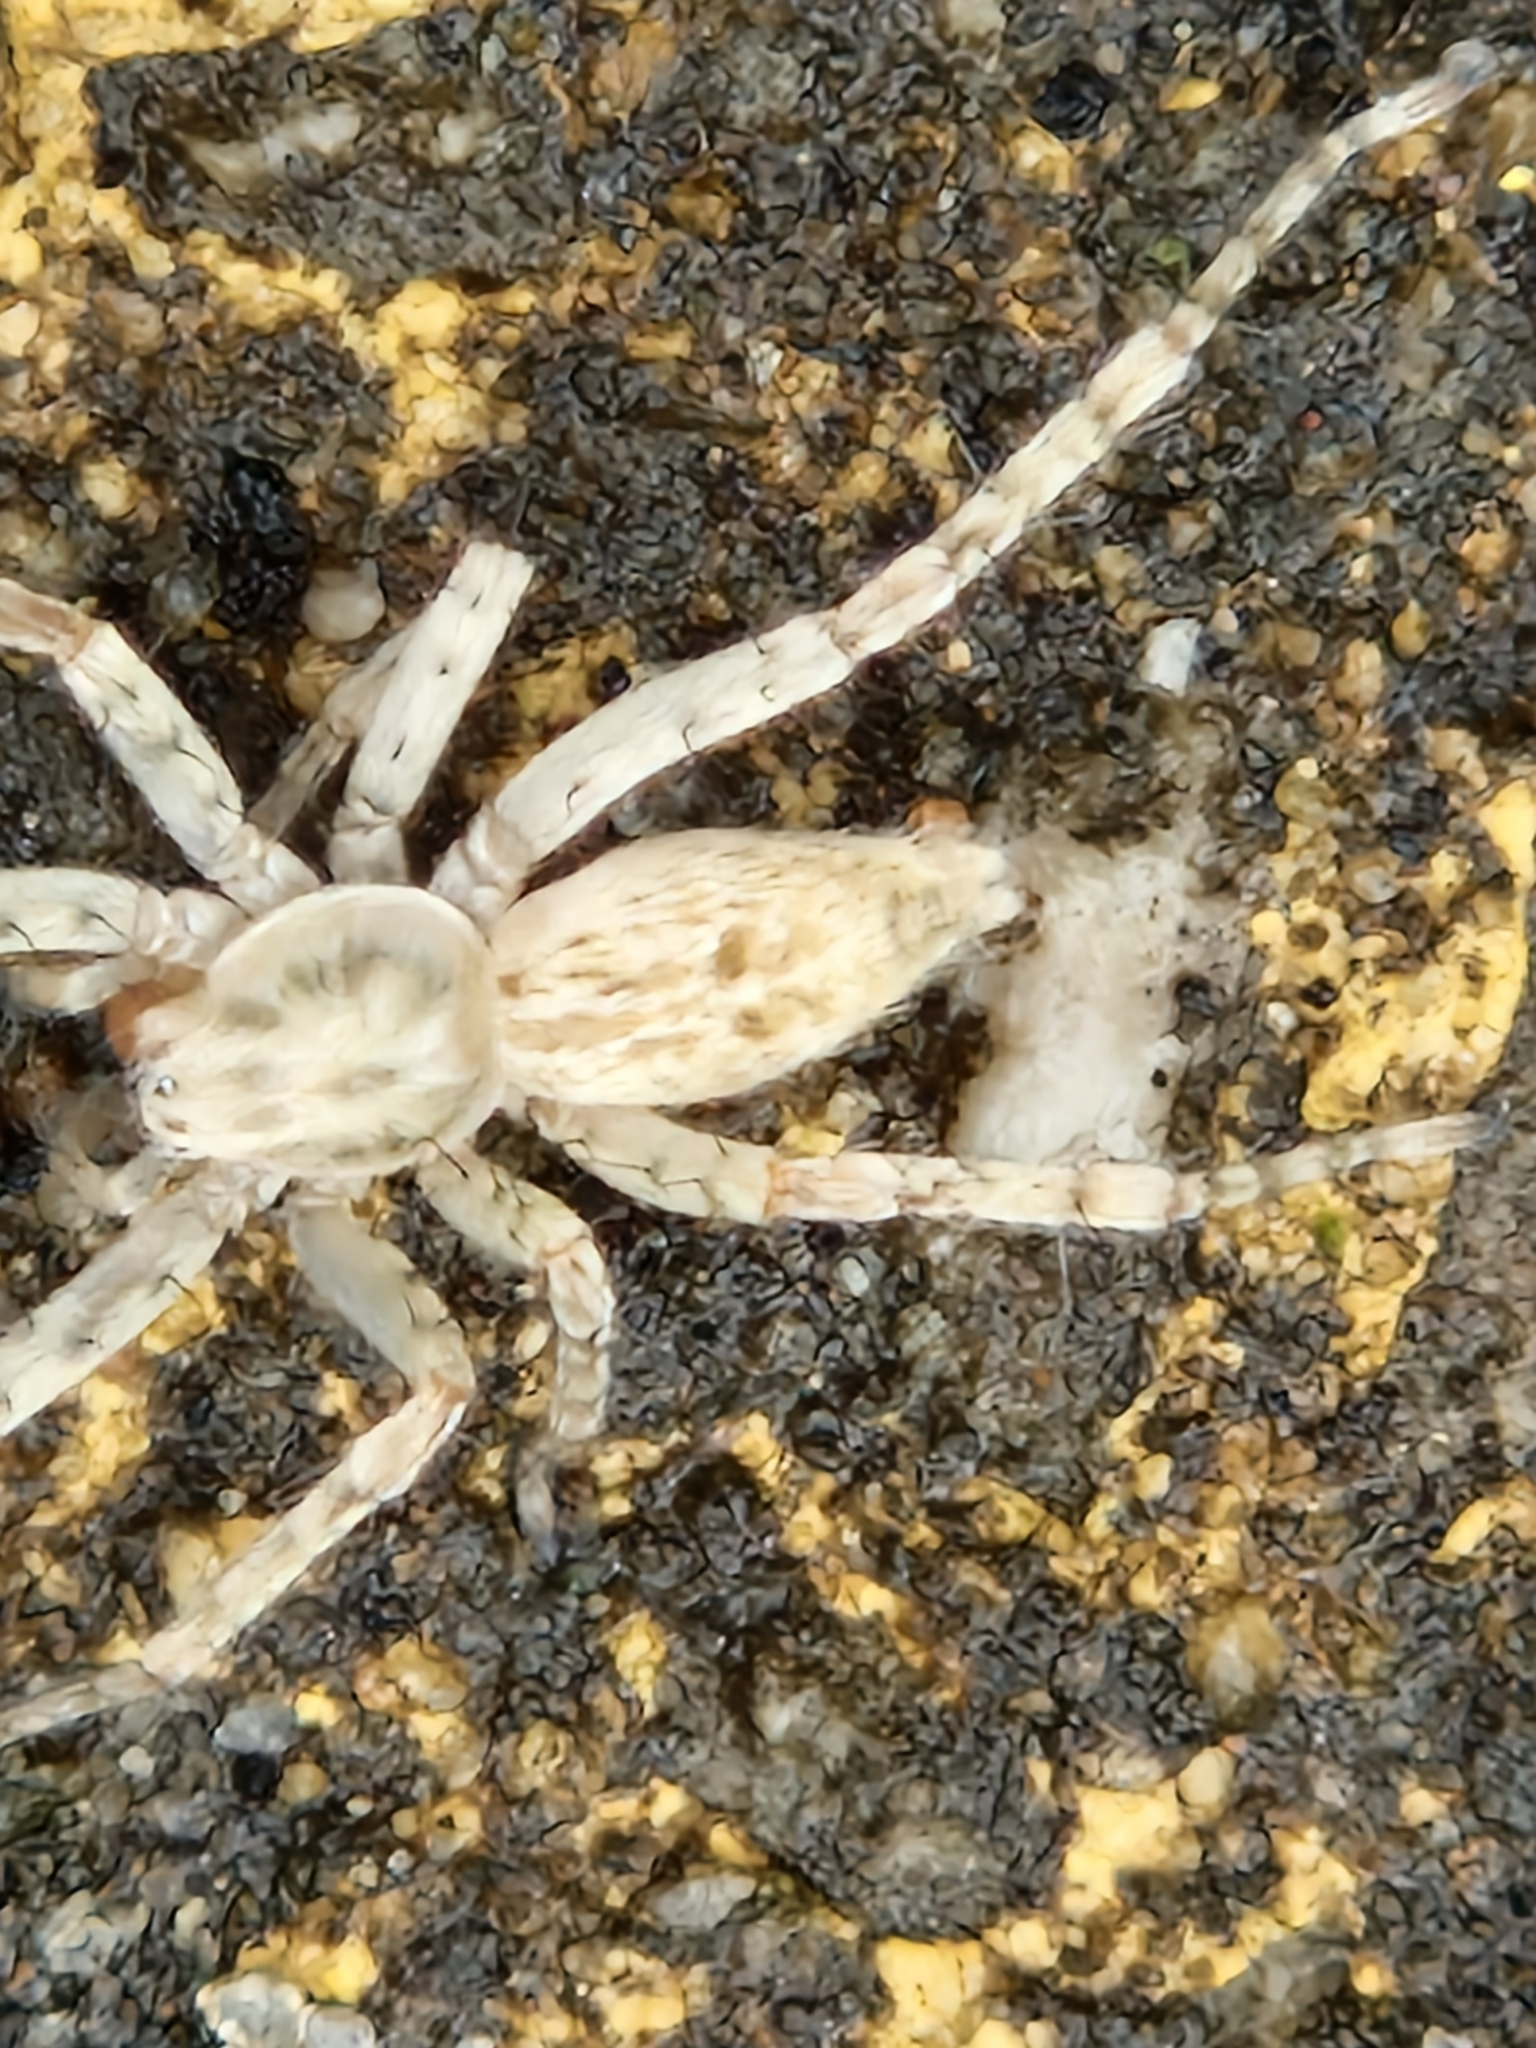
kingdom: Animalia
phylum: Arthropoda
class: Arachnida
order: Araneae
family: Anyphaenidae
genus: Anyphaena
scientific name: Anyphaena numida
